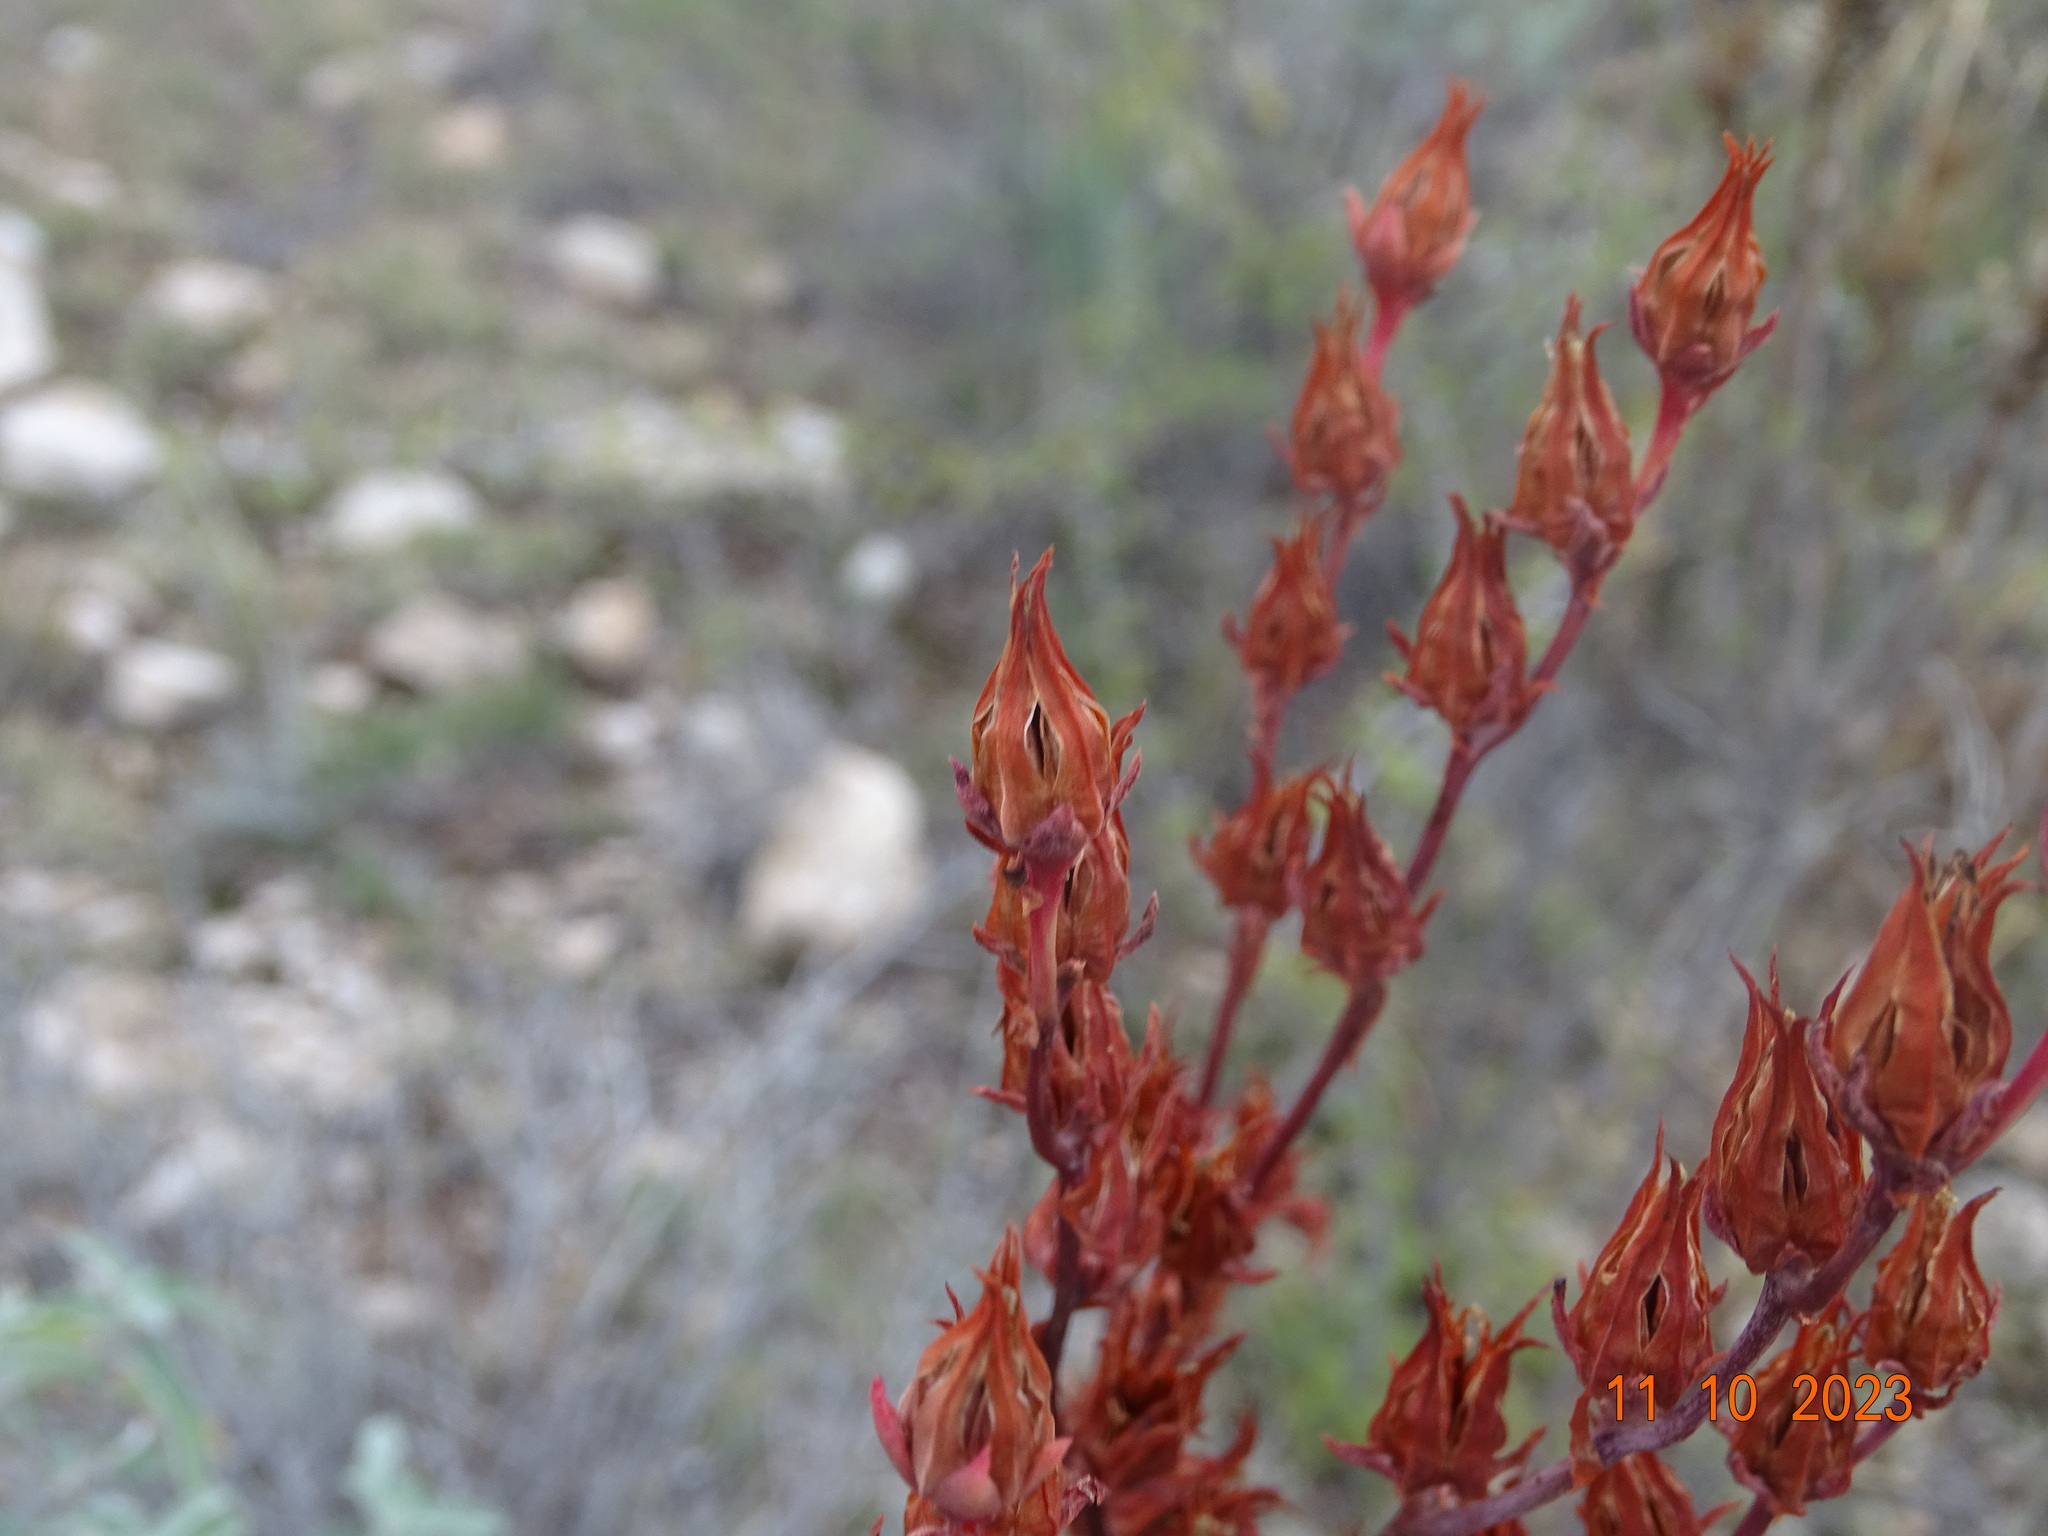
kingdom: Plantae
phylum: Tracheophyta
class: Magnoliopsida
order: Saxifragales
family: Crassulaceae
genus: Echeveria
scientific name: Echeveria paniculata
